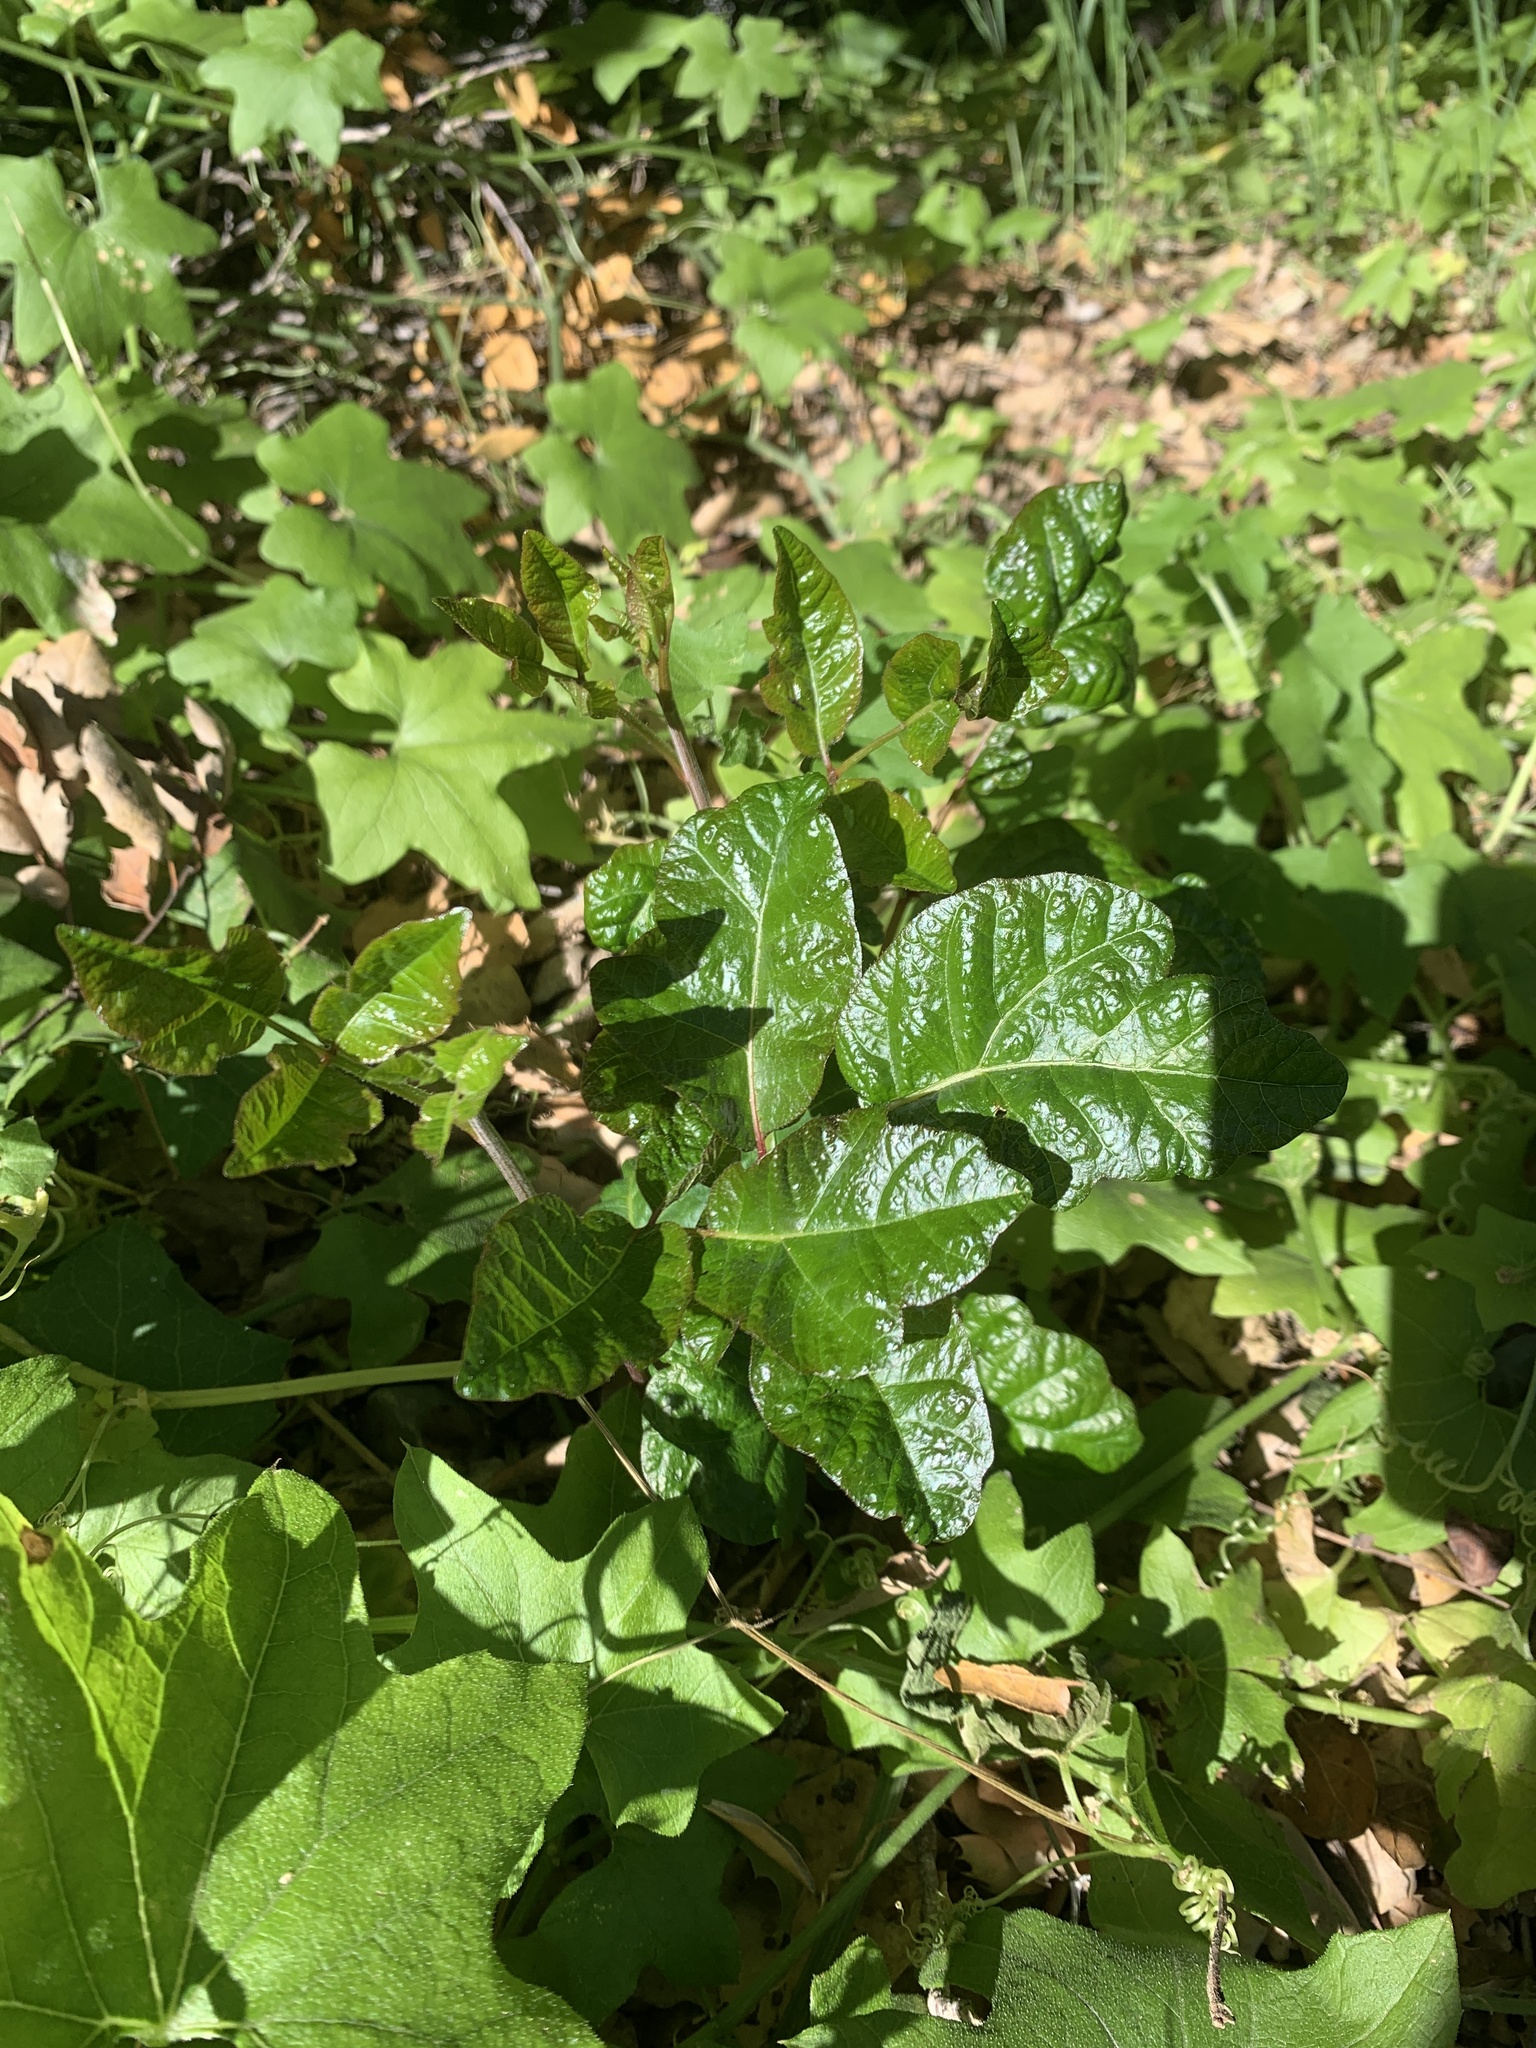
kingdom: Plantae
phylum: Tracheophyta
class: Magnoliopsida
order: Sapindales
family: Anacardiaceae
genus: Toxicodendron
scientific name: Toxicodendron diversilobum
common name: Pacific poison-oak
